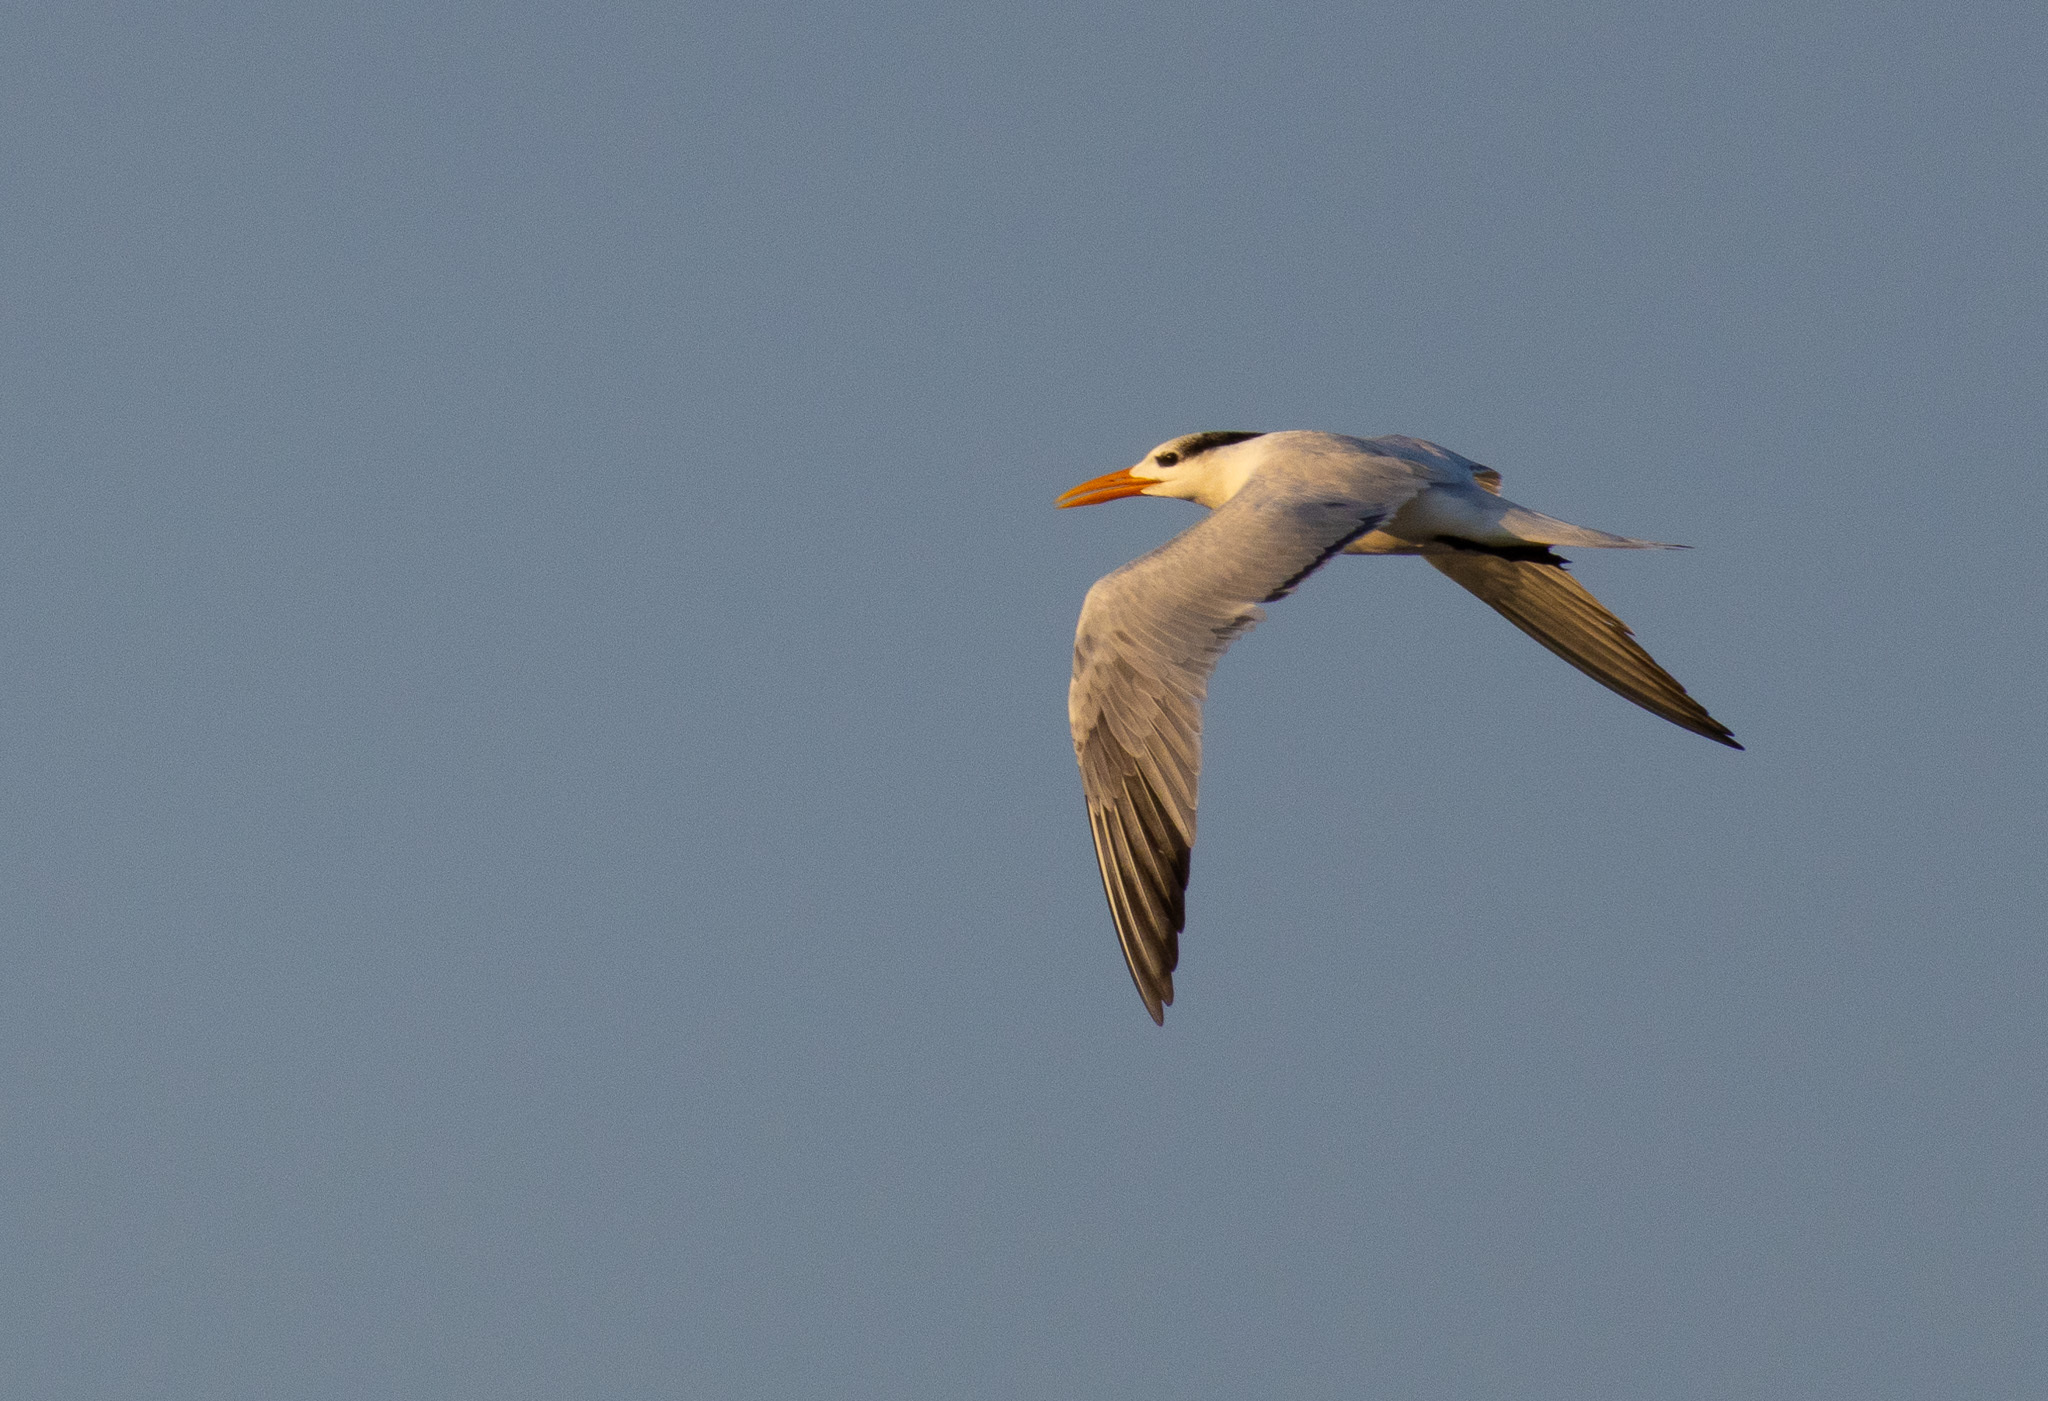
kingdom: Animalia
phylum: Chordata
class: Aves
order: Charadriiformes
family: Laridae
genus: Thalasseus
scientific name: Thalasseus maximus
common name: Royal tern
